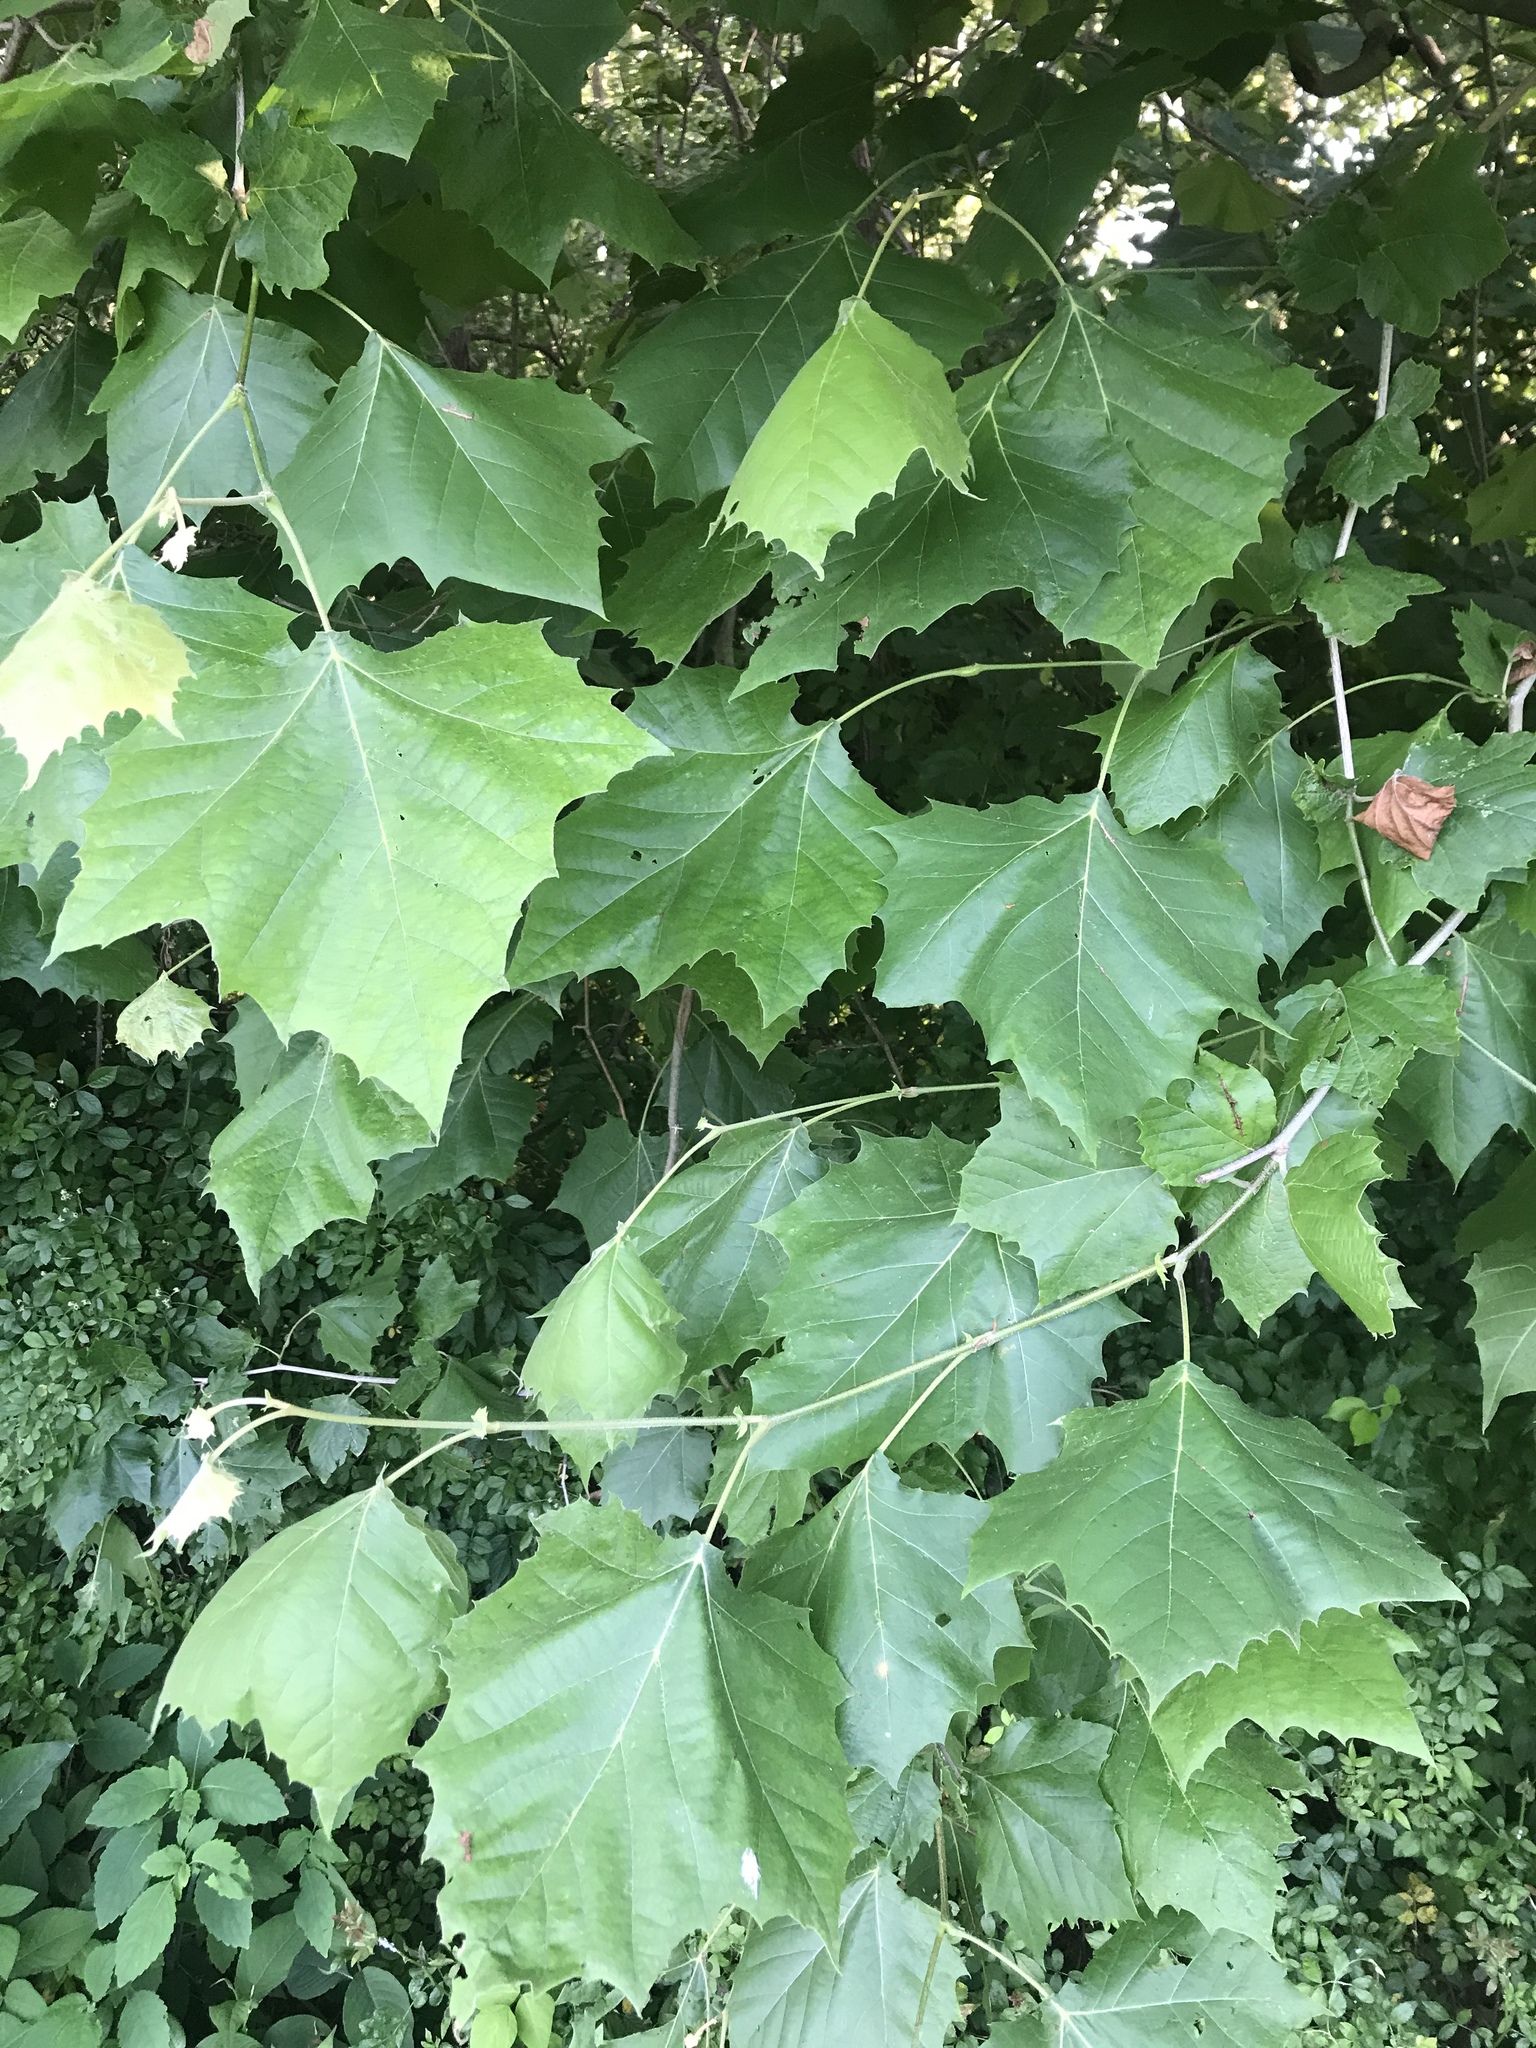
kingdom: Plantae
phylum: Tracheophyta
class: Magnoliopsida
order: Proteales
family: Platanaceae
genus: Platanus
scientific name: Platanus occidentalis
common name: American sycamore
